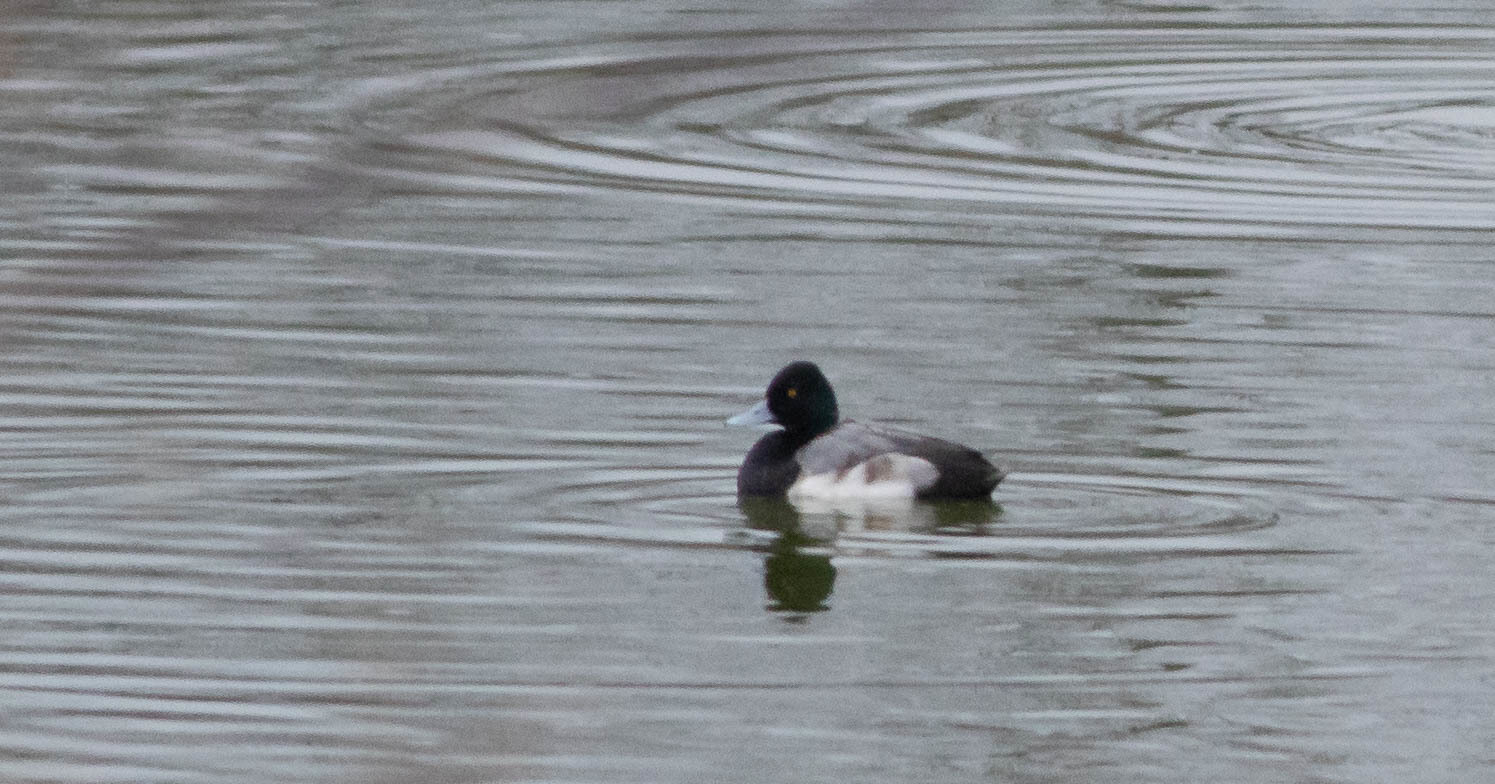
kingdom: Animalia
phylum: Chordata
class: Aves
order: Anseriformes
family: Anatidae
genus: Aythya
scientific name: Aythya affinis
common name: Lesser scaup
